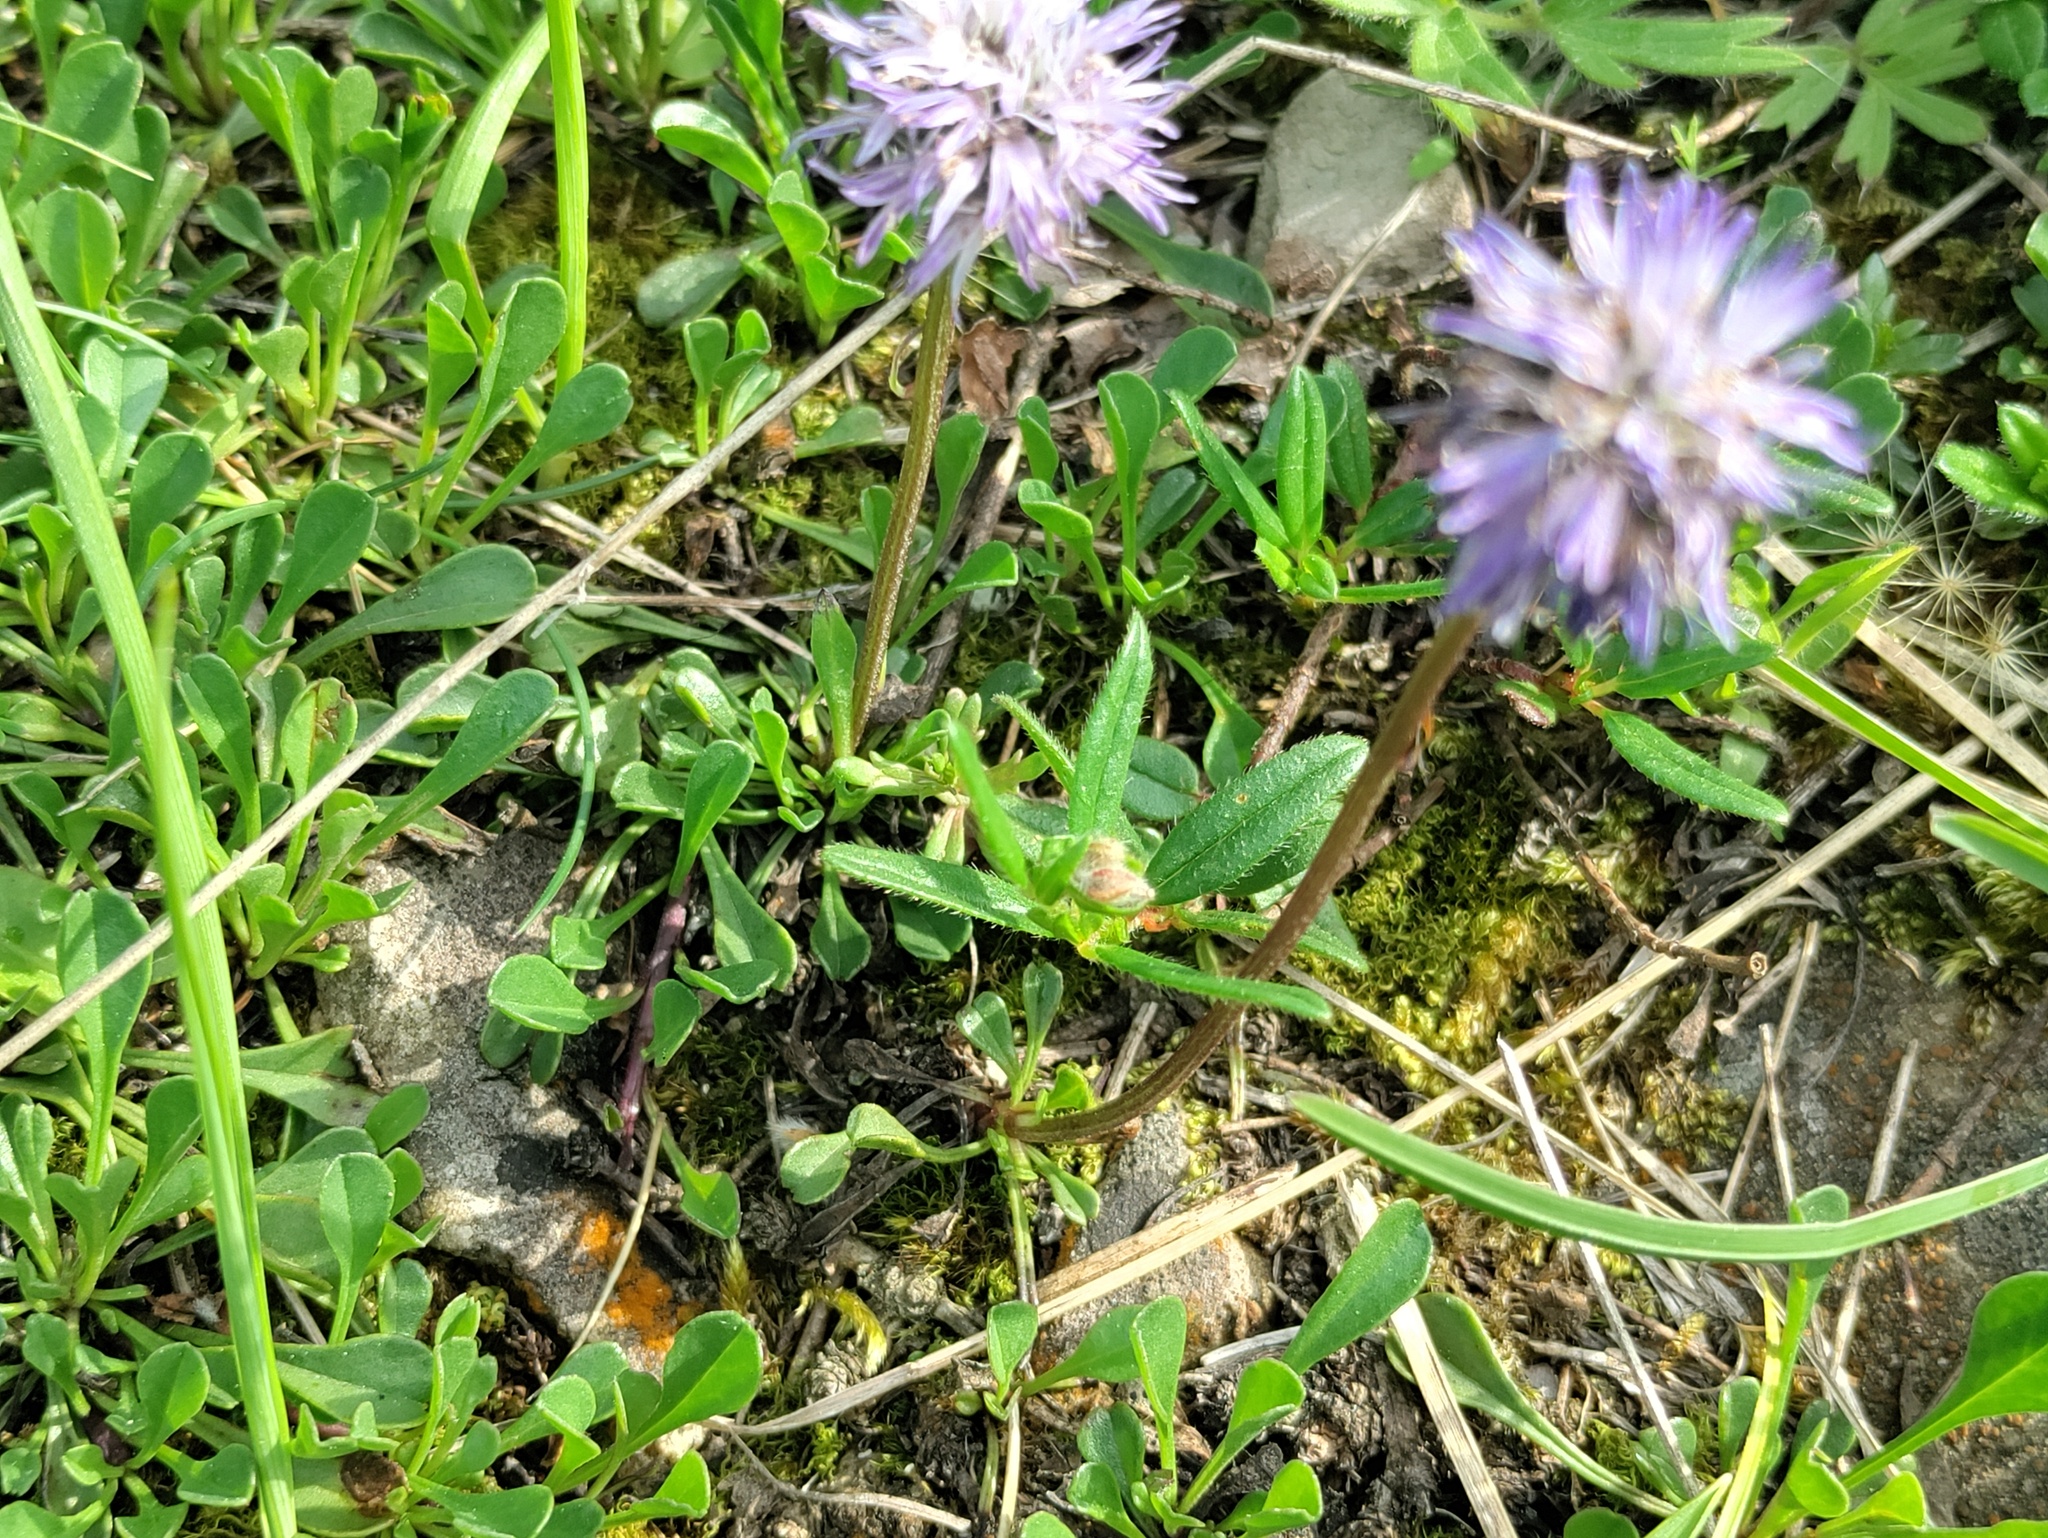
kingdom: Plantae
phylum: Tracheophyta
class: Magnoliopsida
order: Lamiales
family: Plantaginaceae
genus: Globularia
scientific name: Globularia cordifolia
